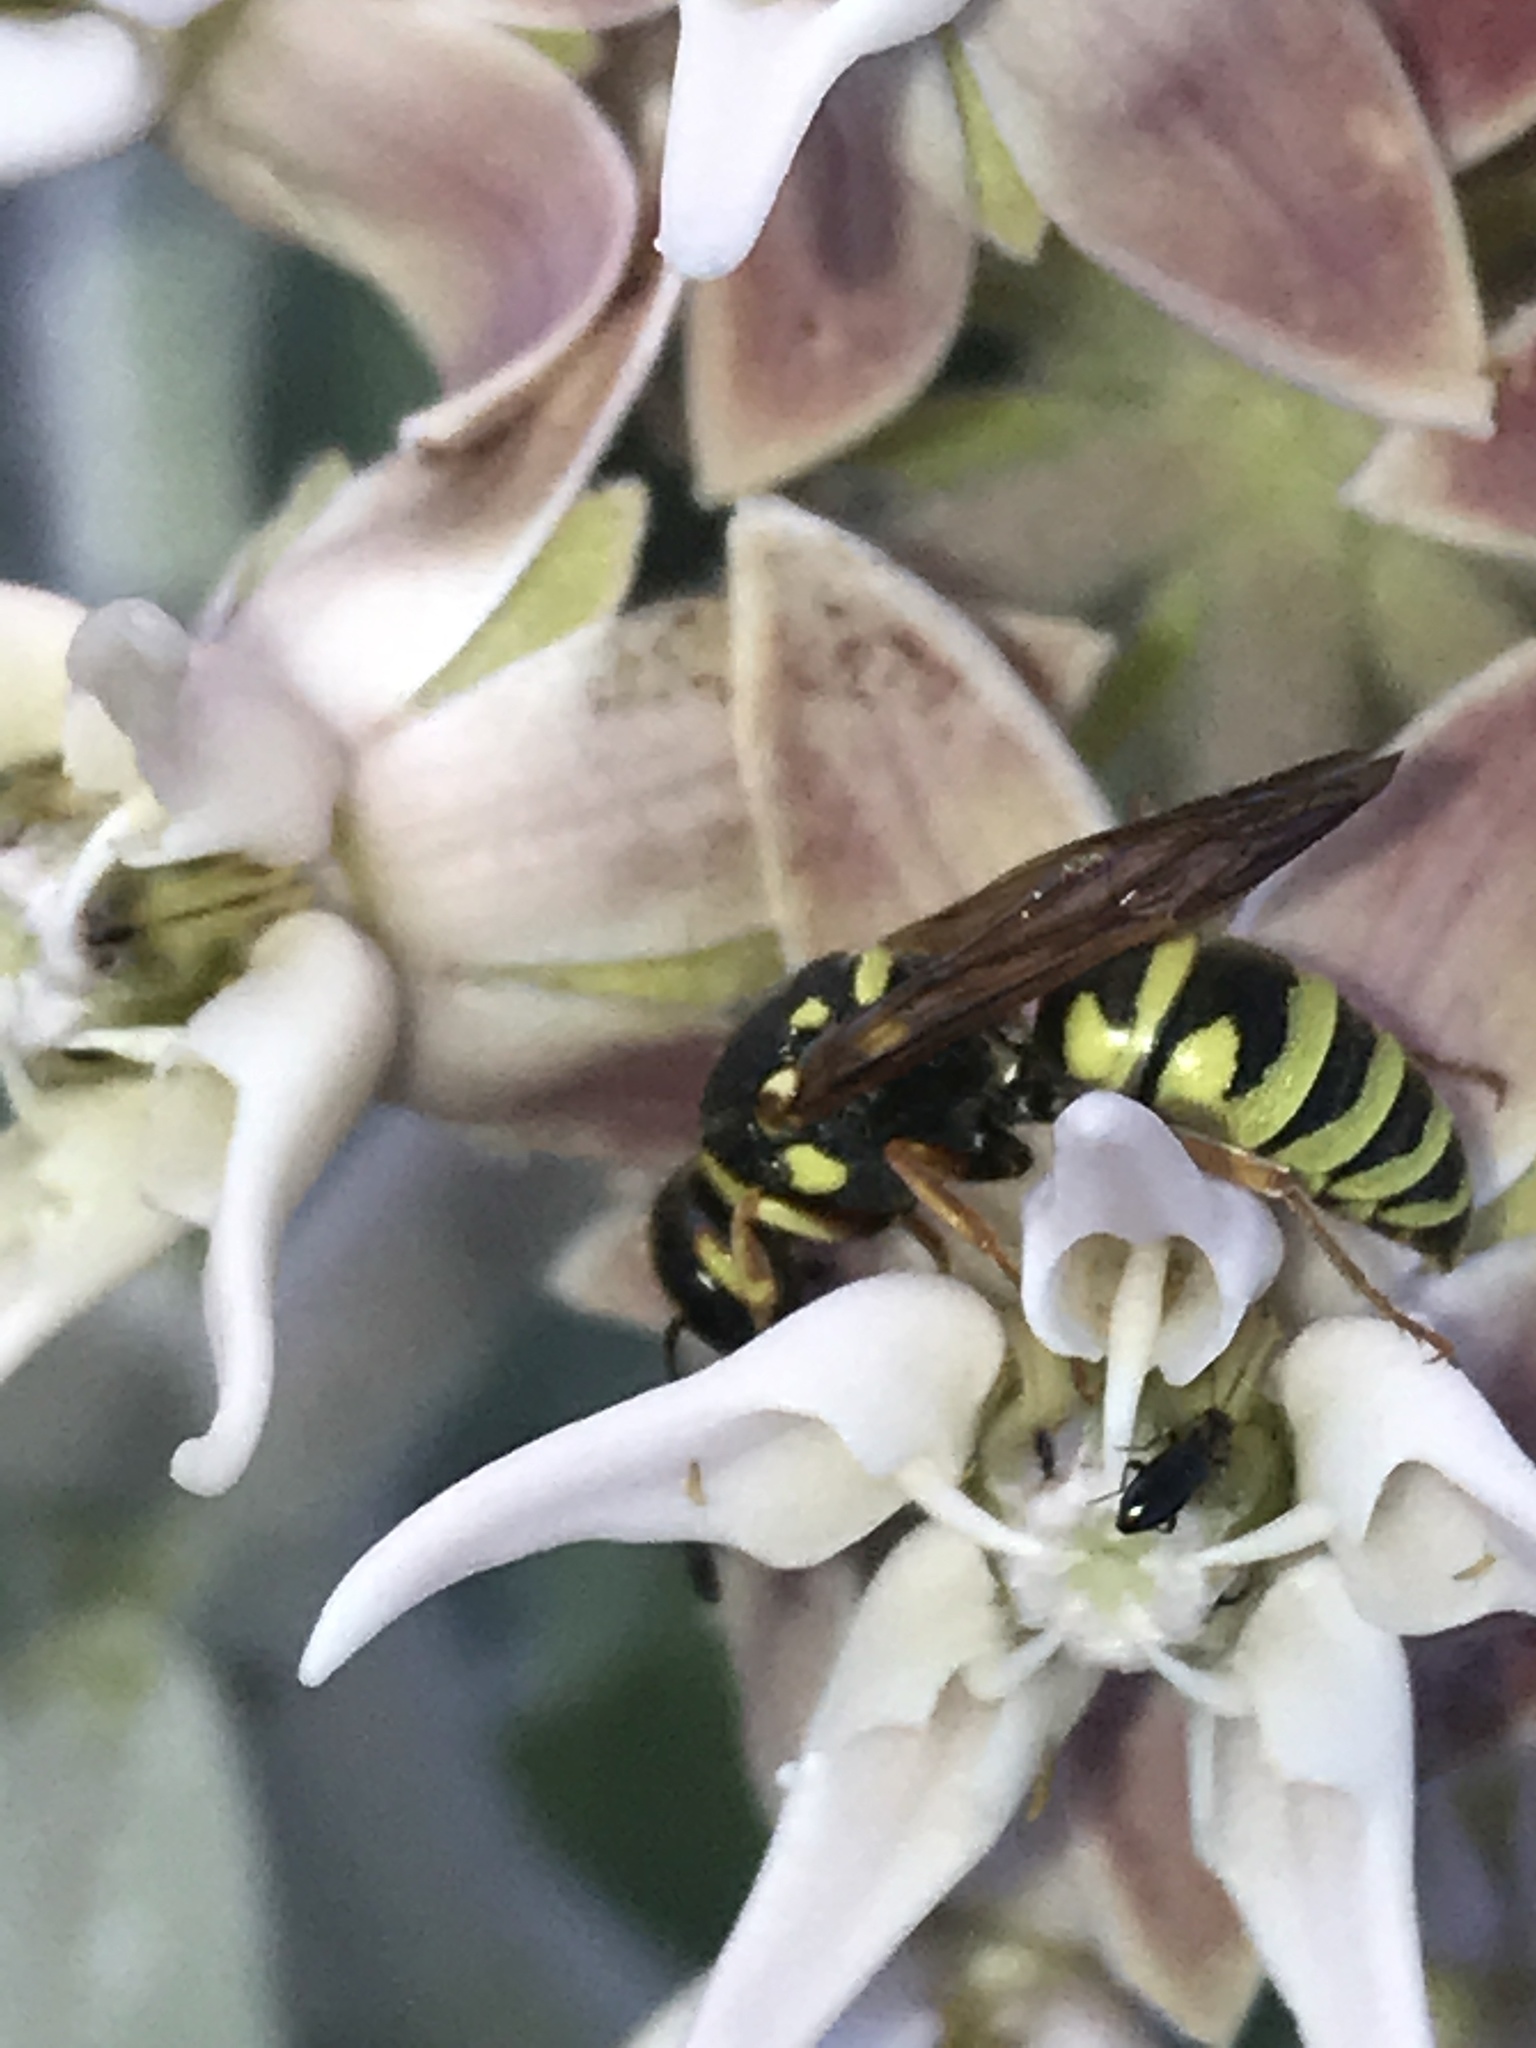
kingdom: Animalia
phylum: Arthropoda
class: Insecta
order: Hymenoptera
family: Eumenidae
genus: Euodynerus
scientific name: Euodynerus
